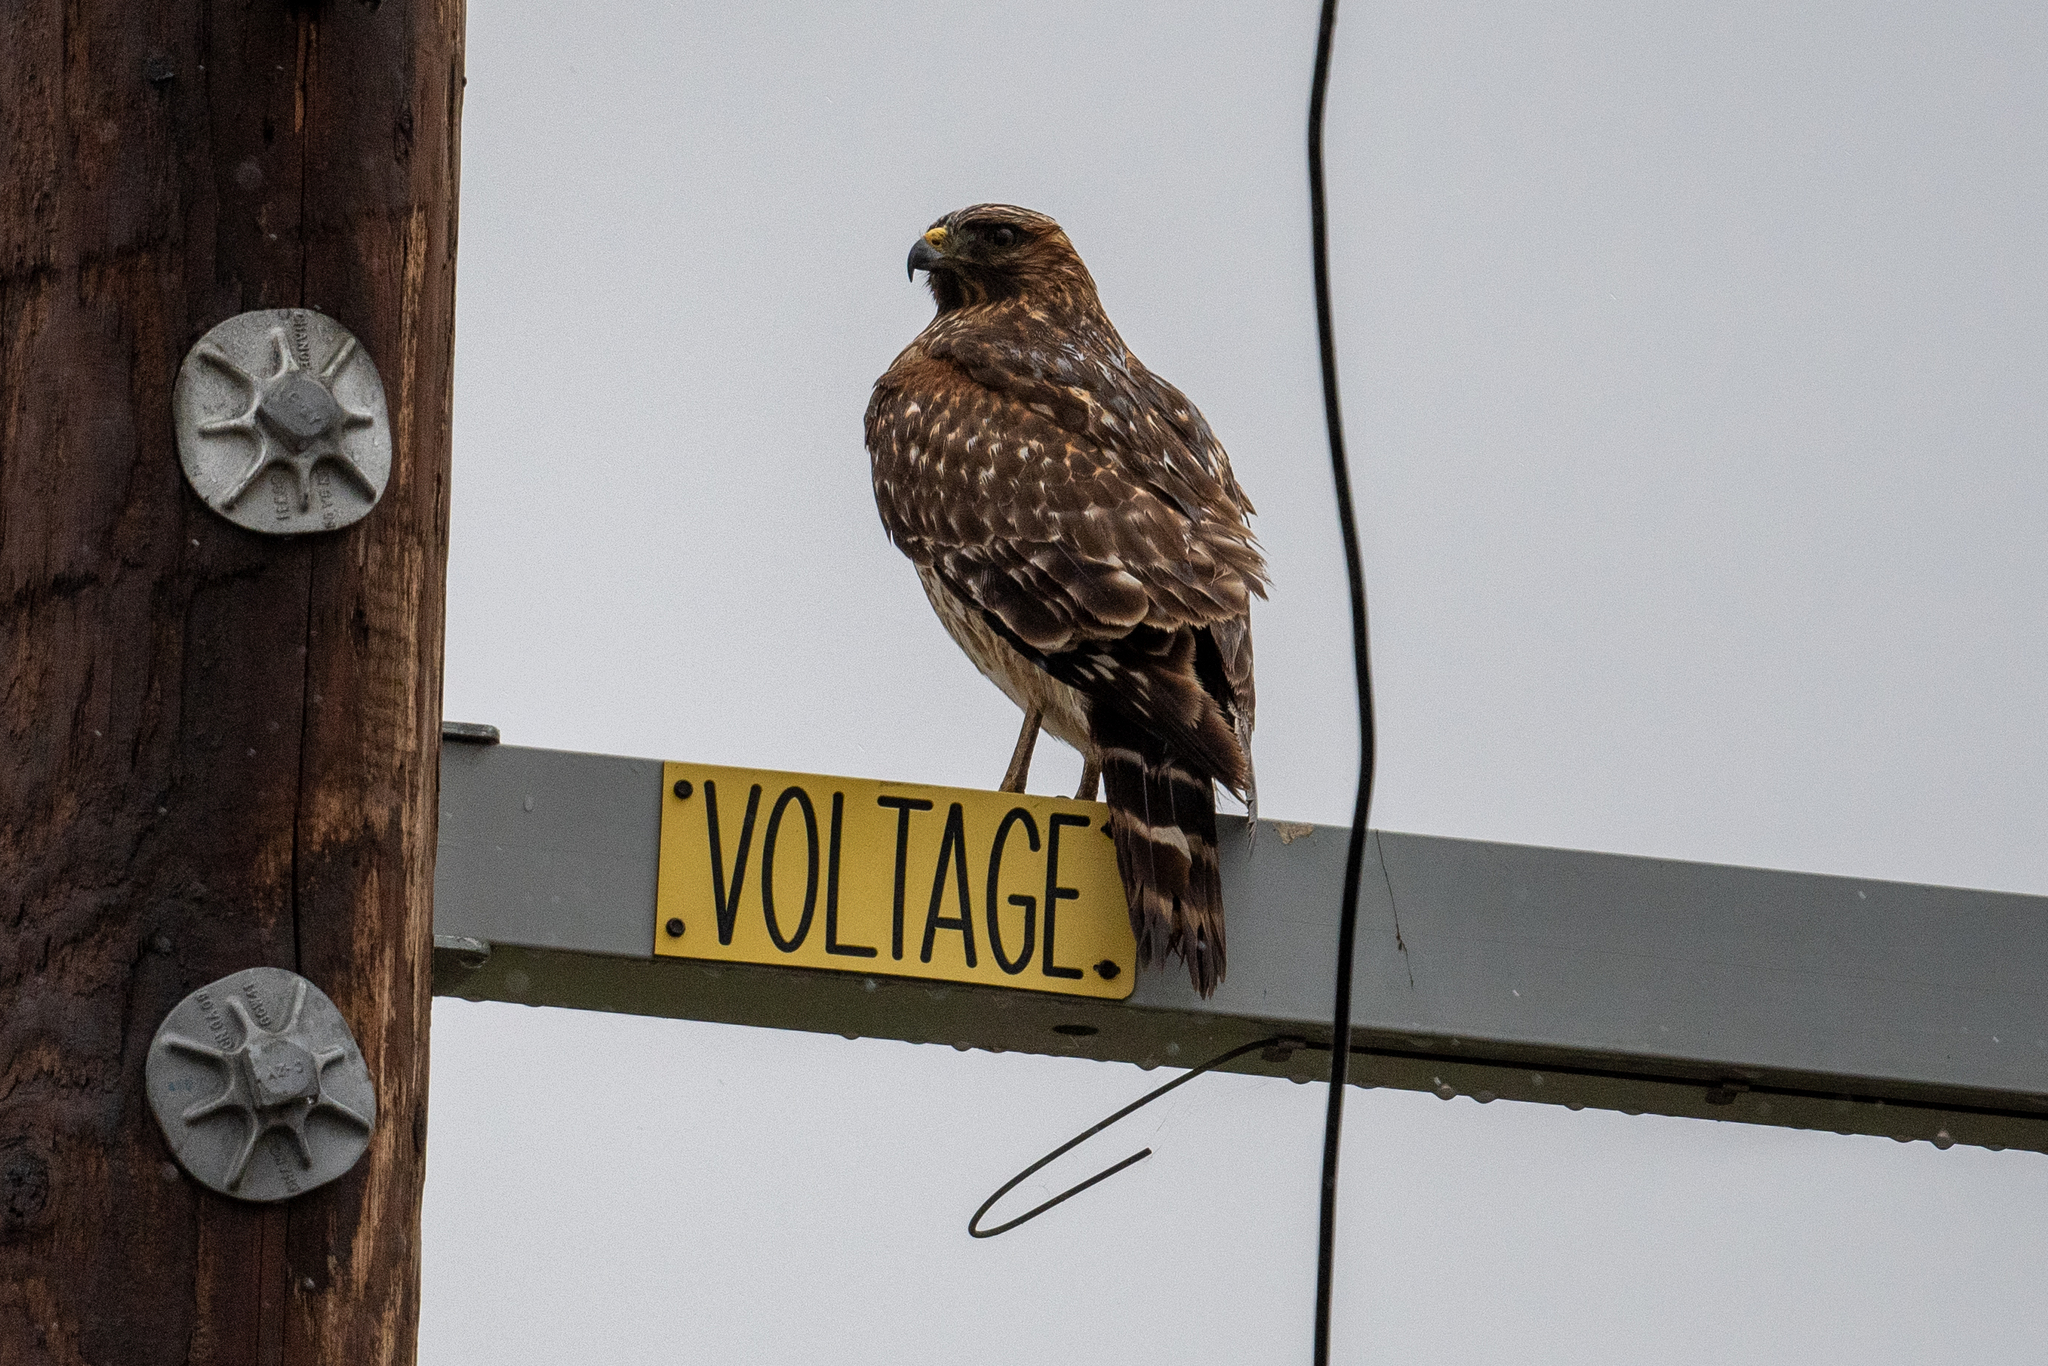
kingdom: Animalia
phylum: Chordata
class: Aves
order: Accipitriformes
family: Accipitridae
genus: Buteo
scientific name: Buteo lineatus
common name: Red-shouldered hawk
